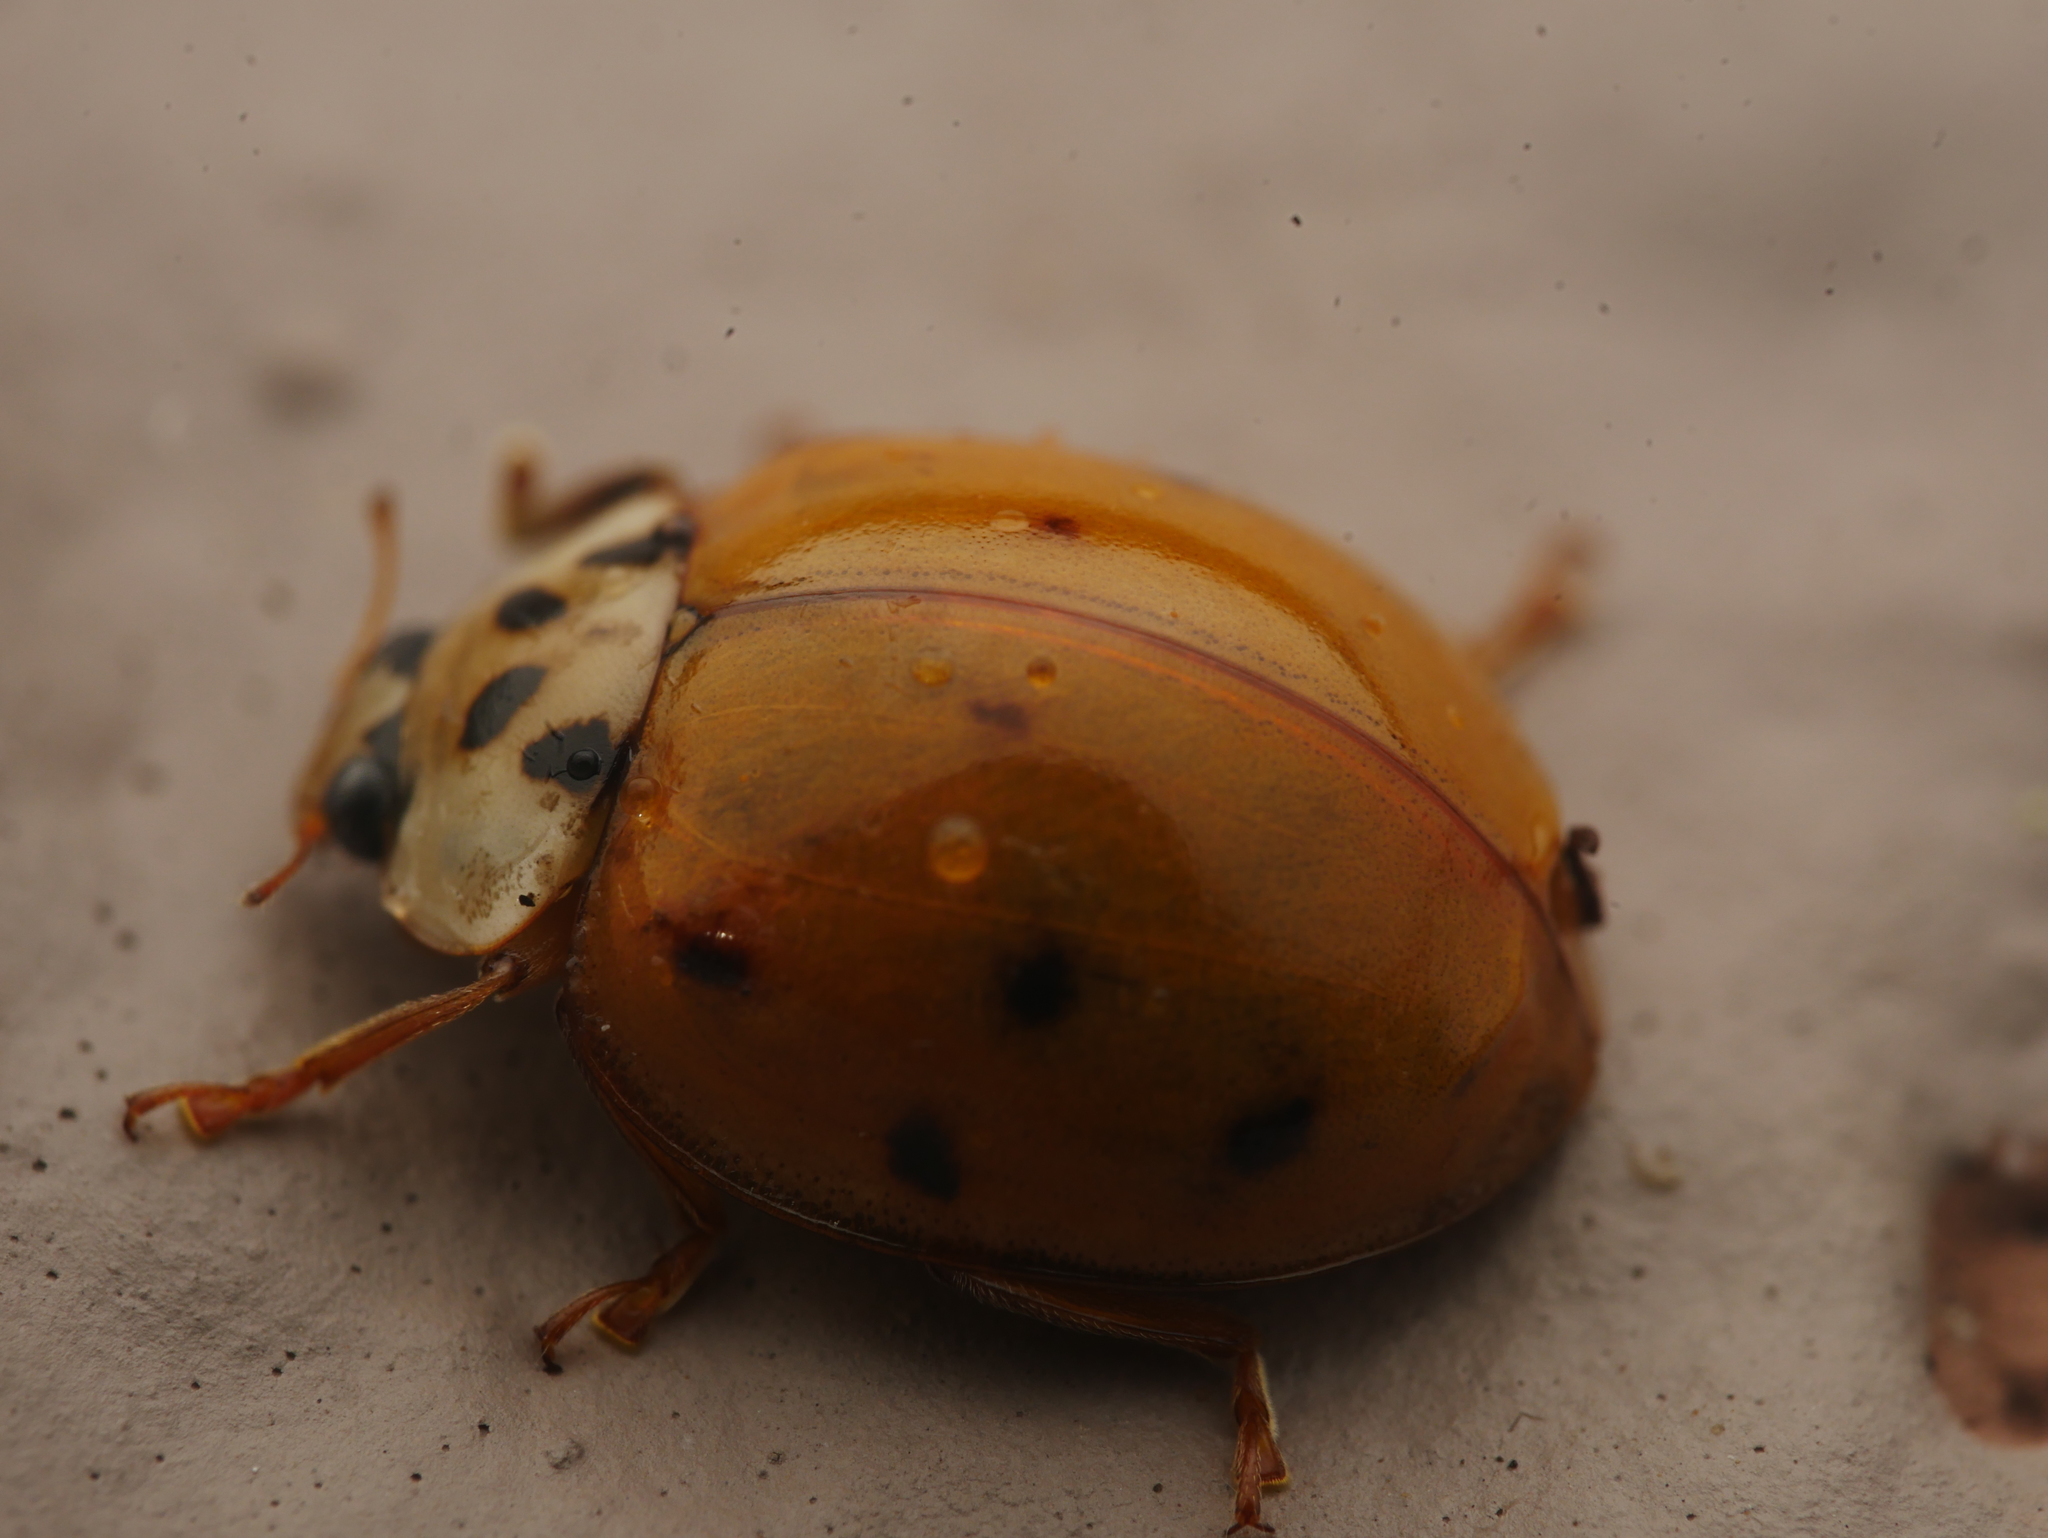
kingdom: Animalia
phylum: Arthropoda
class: Insecta
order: Coleoptera
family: Coccinellidae
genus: Harmonia
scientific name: Harmonia axyridis
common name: Harlequin ladybird
